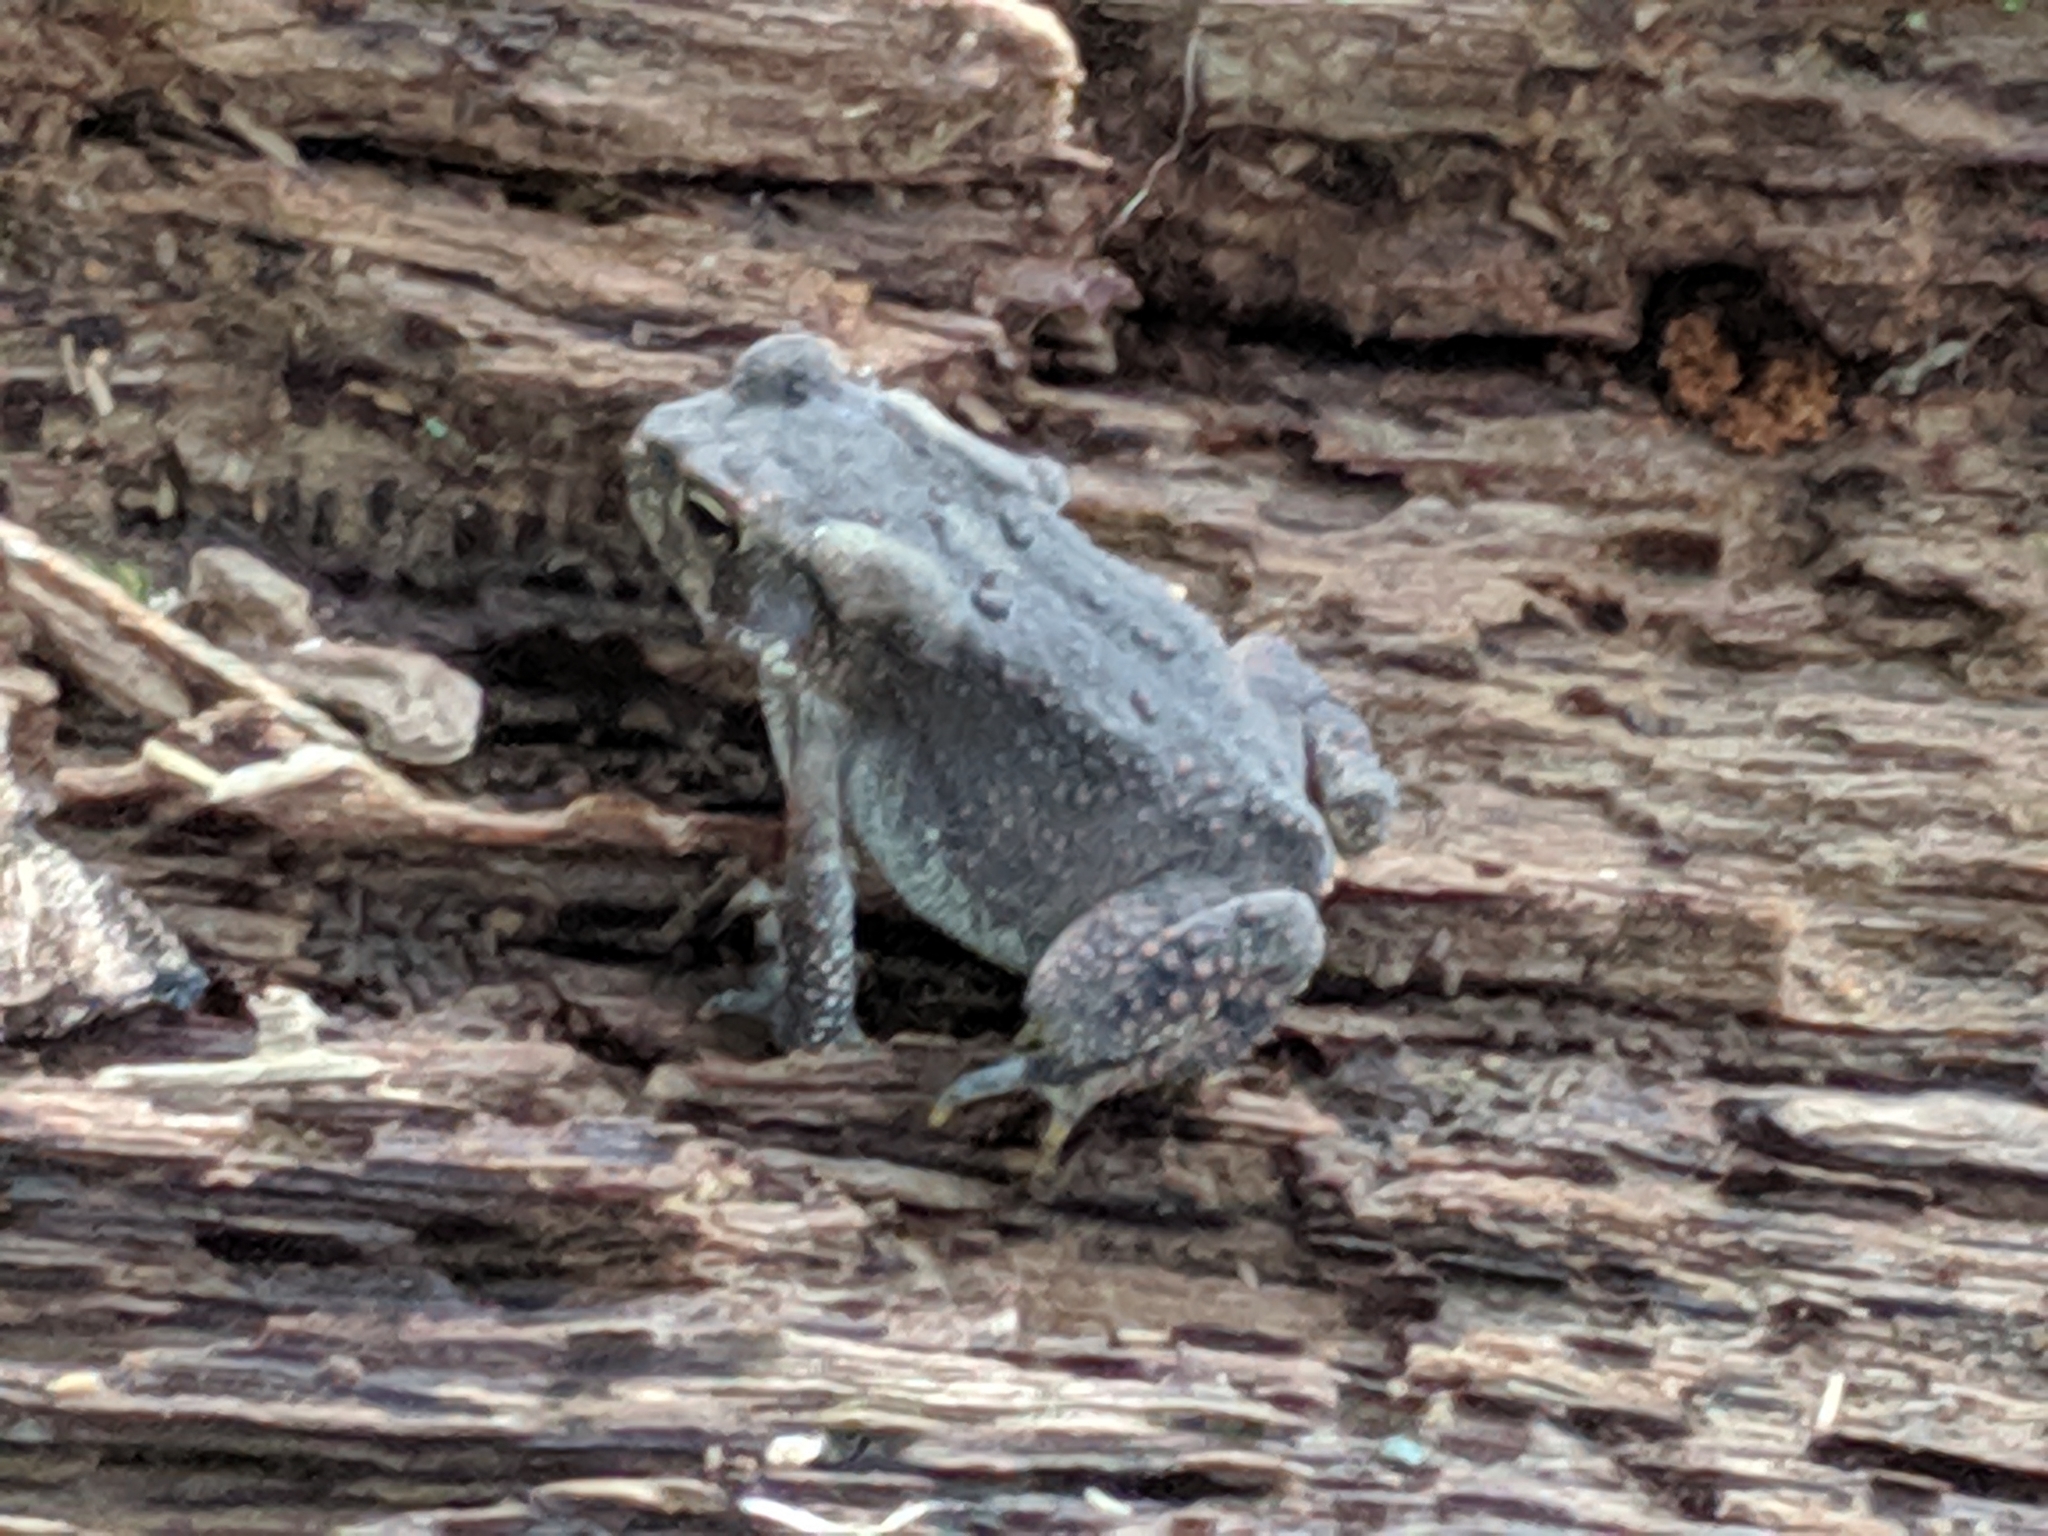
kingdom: Animalia
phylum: Chordata
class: Amphibia
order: Anura
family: Bufonidae
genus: Anaxyrus
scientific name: Anaxyrus americanus
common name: American toad
